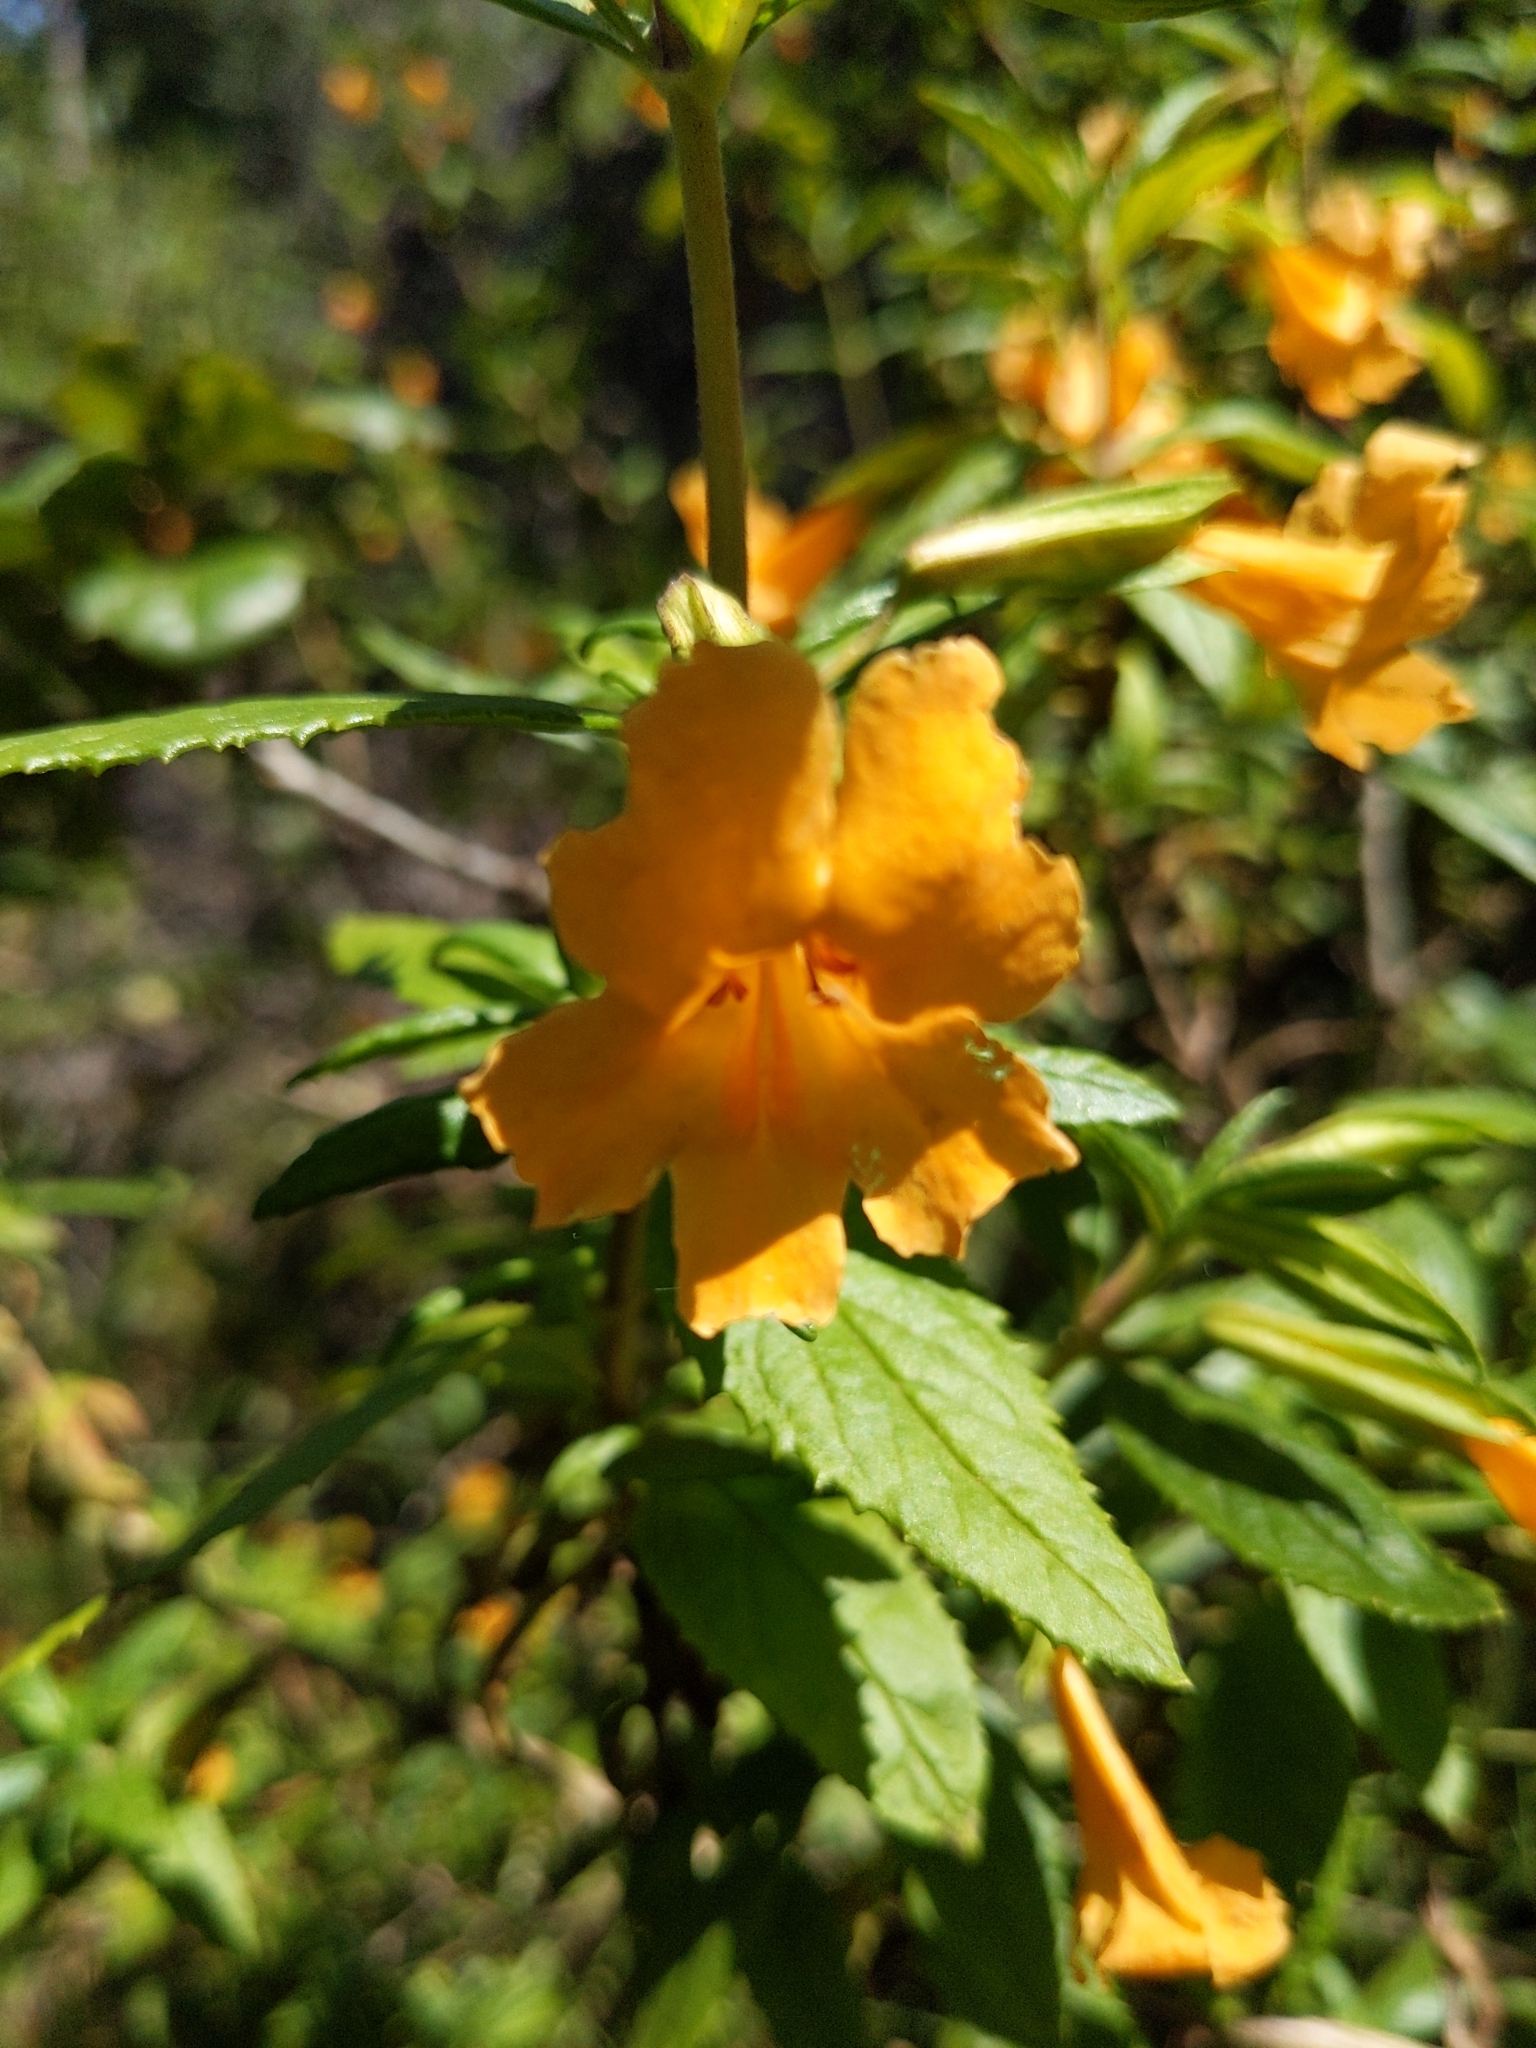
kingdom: Plantae
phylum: Tracheophyta
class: Magnoliopsida
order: Lamiales
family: Phrymaceae
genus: Diplacus
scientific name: Diplacus aurantiacus
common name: Bush monkey-flower
